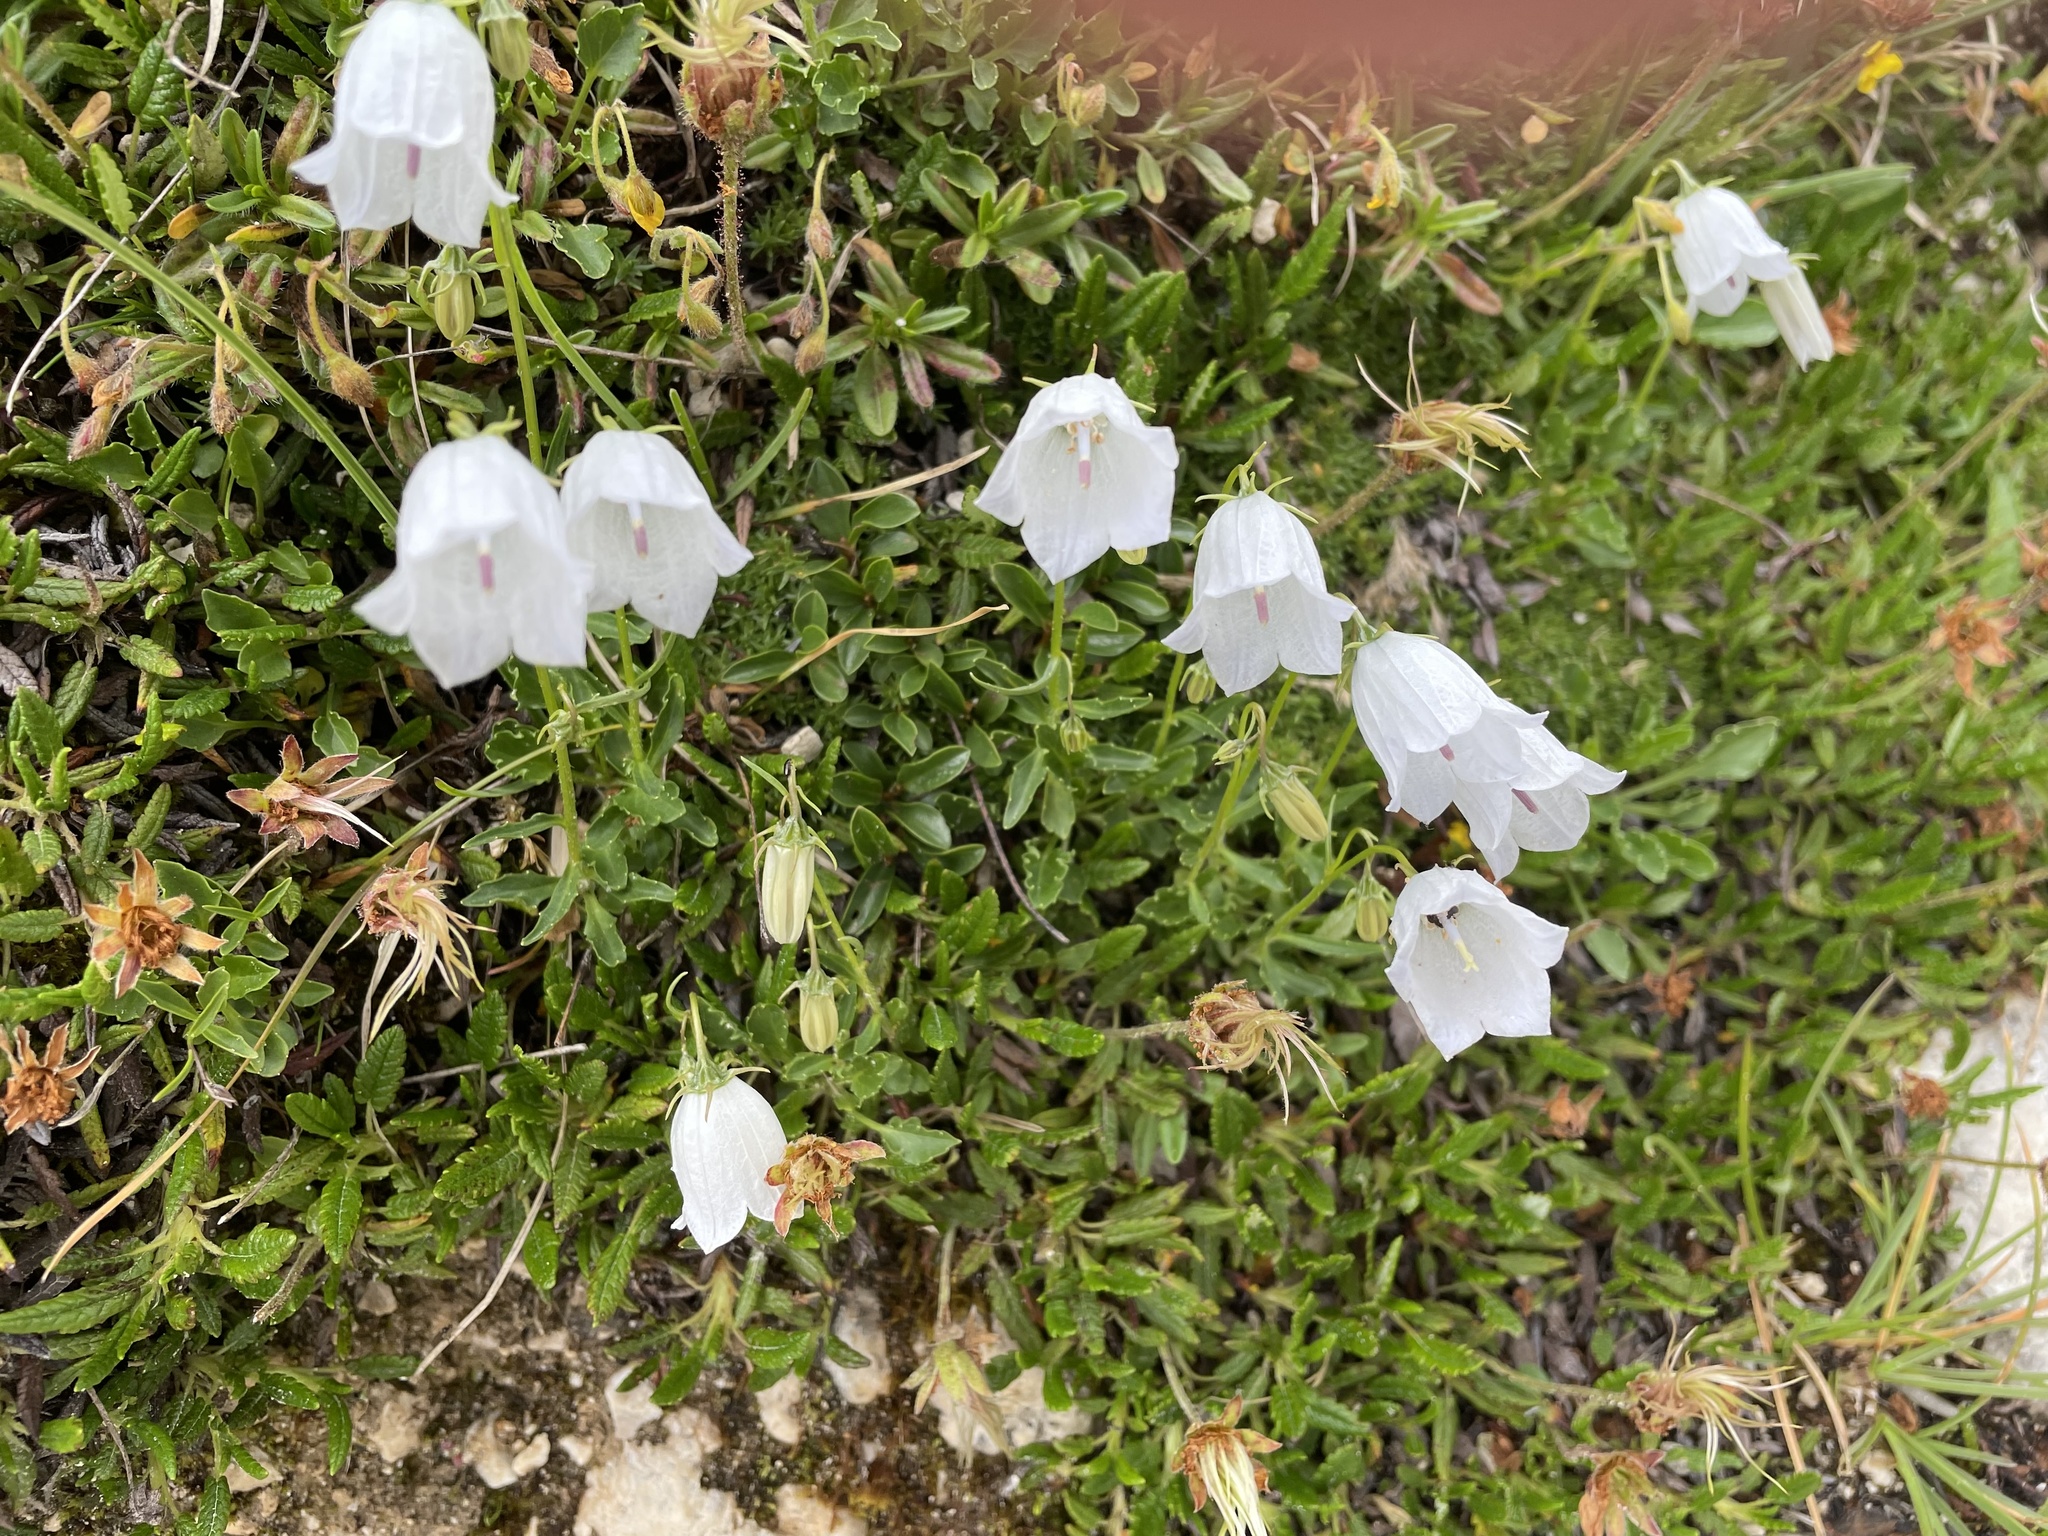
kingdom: Plantae
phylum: Tracheophyta
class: Magnoliopsida
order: Asterales
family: Campanulaceae
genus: Campanula
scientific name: Campanula cochleariifolia
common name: Fairies'-thimbles
